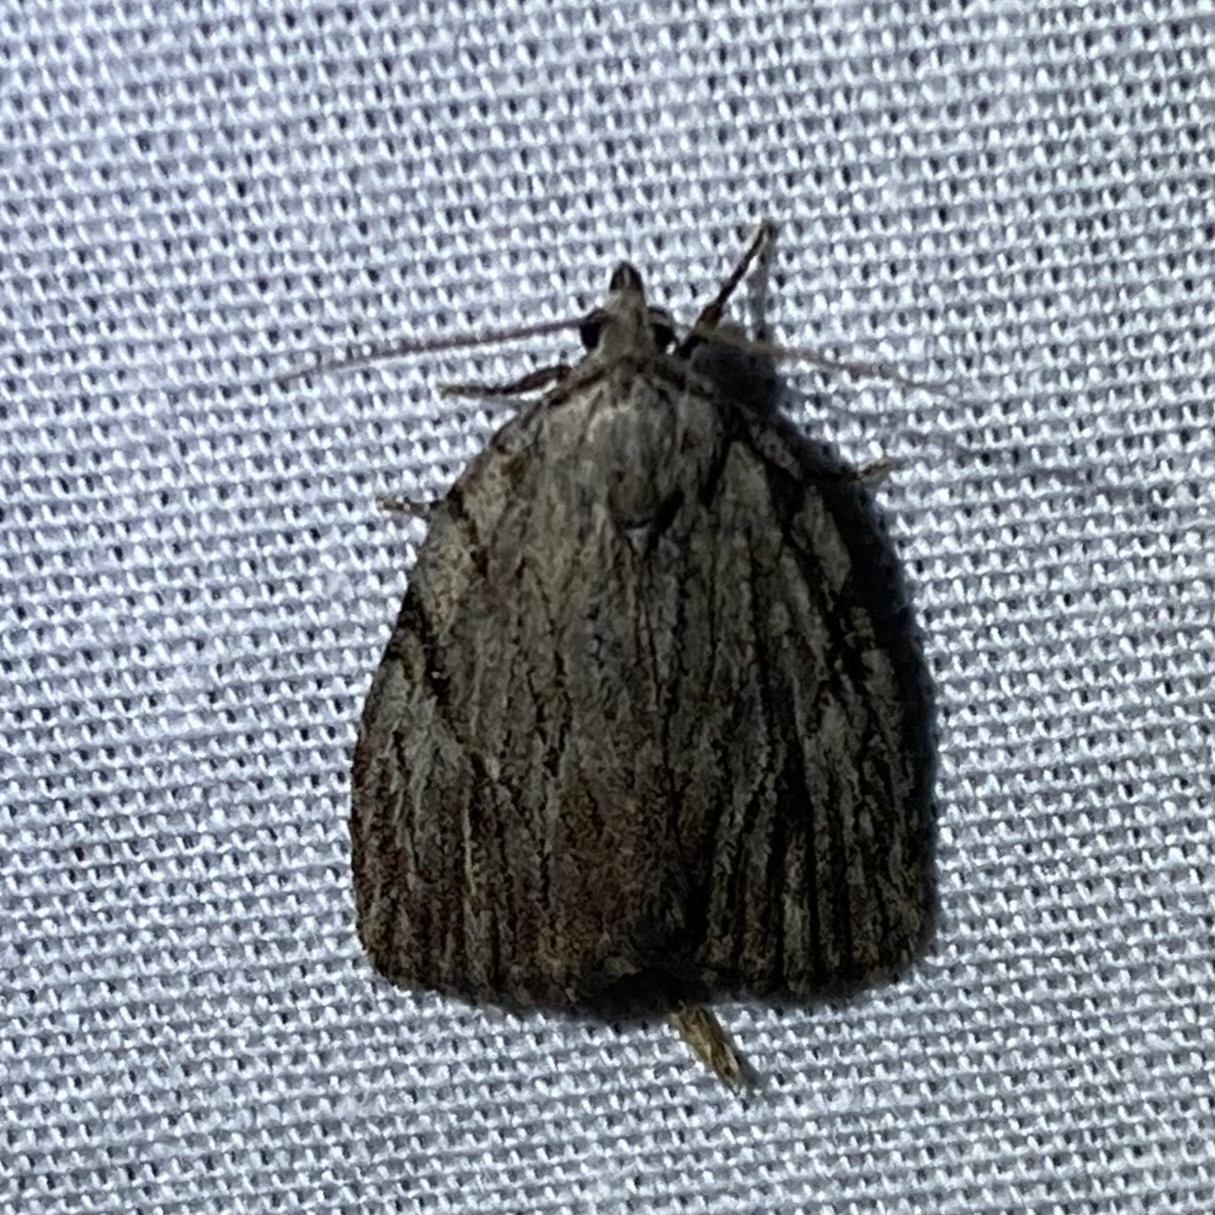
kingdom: Animalia
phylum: Arthropoda
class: Insecta
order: Lepidoptera
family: Noctuidae
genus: Balsa
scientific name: Balsa tristrigella
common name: Three-lined balsa moth
